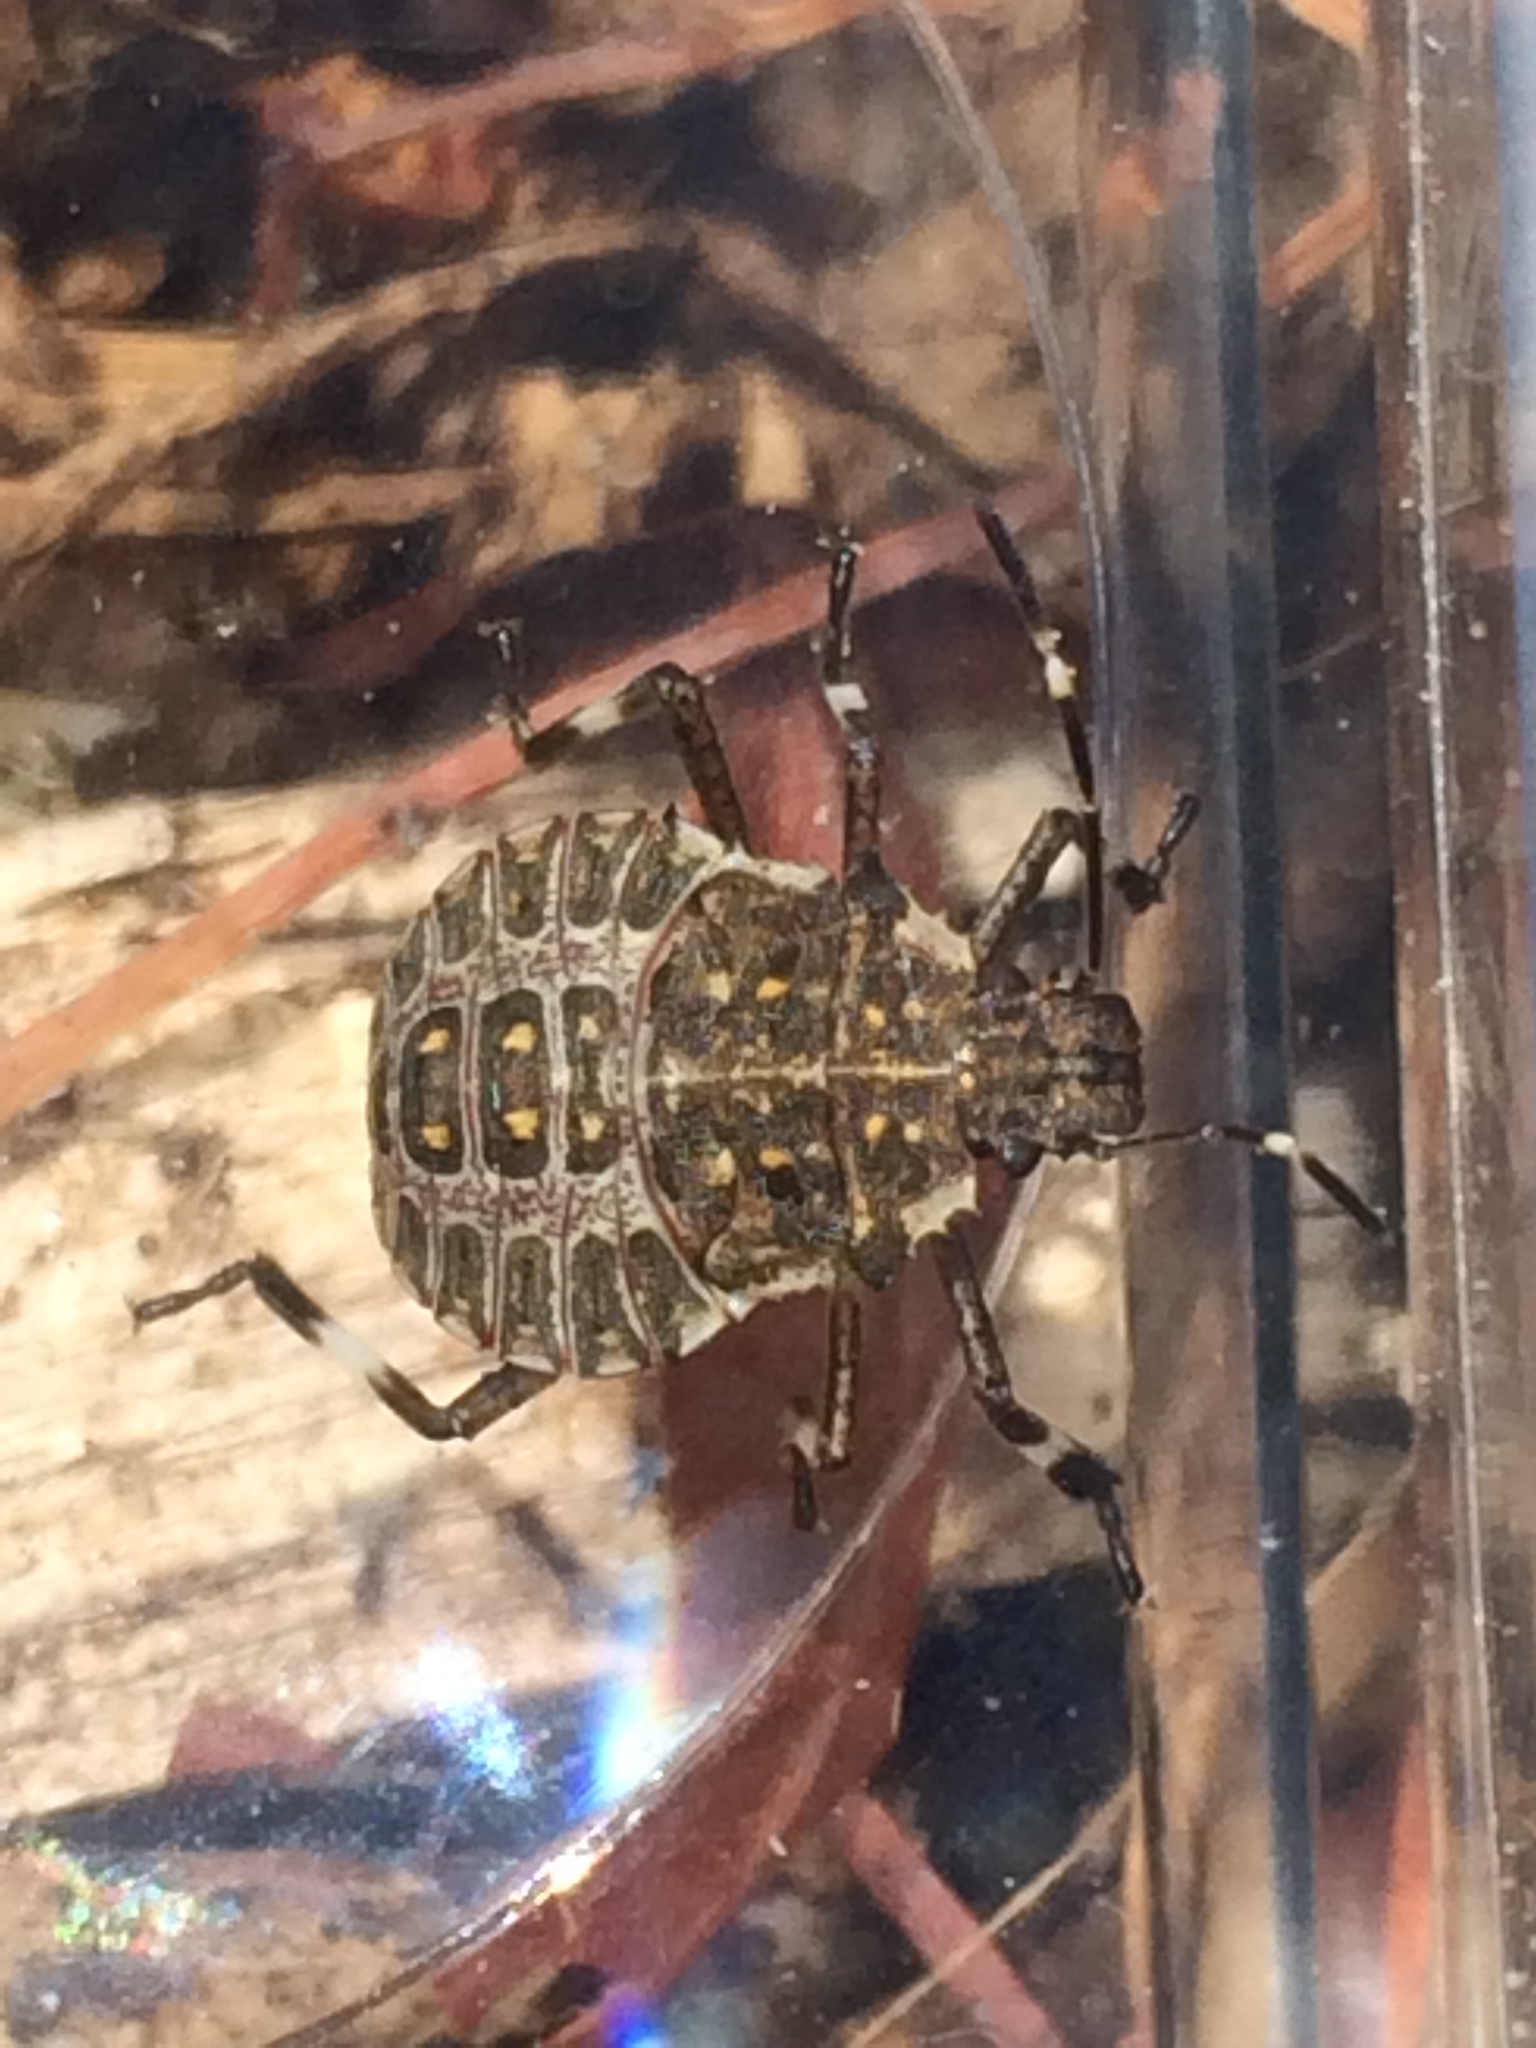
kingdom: Animalia
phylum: Arthropoda
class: Insecta
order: Hemiptera
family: Pentatomidae
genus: Halyomorpha
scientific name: Halyomorpha halys
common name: Brown marmorated stink bug
